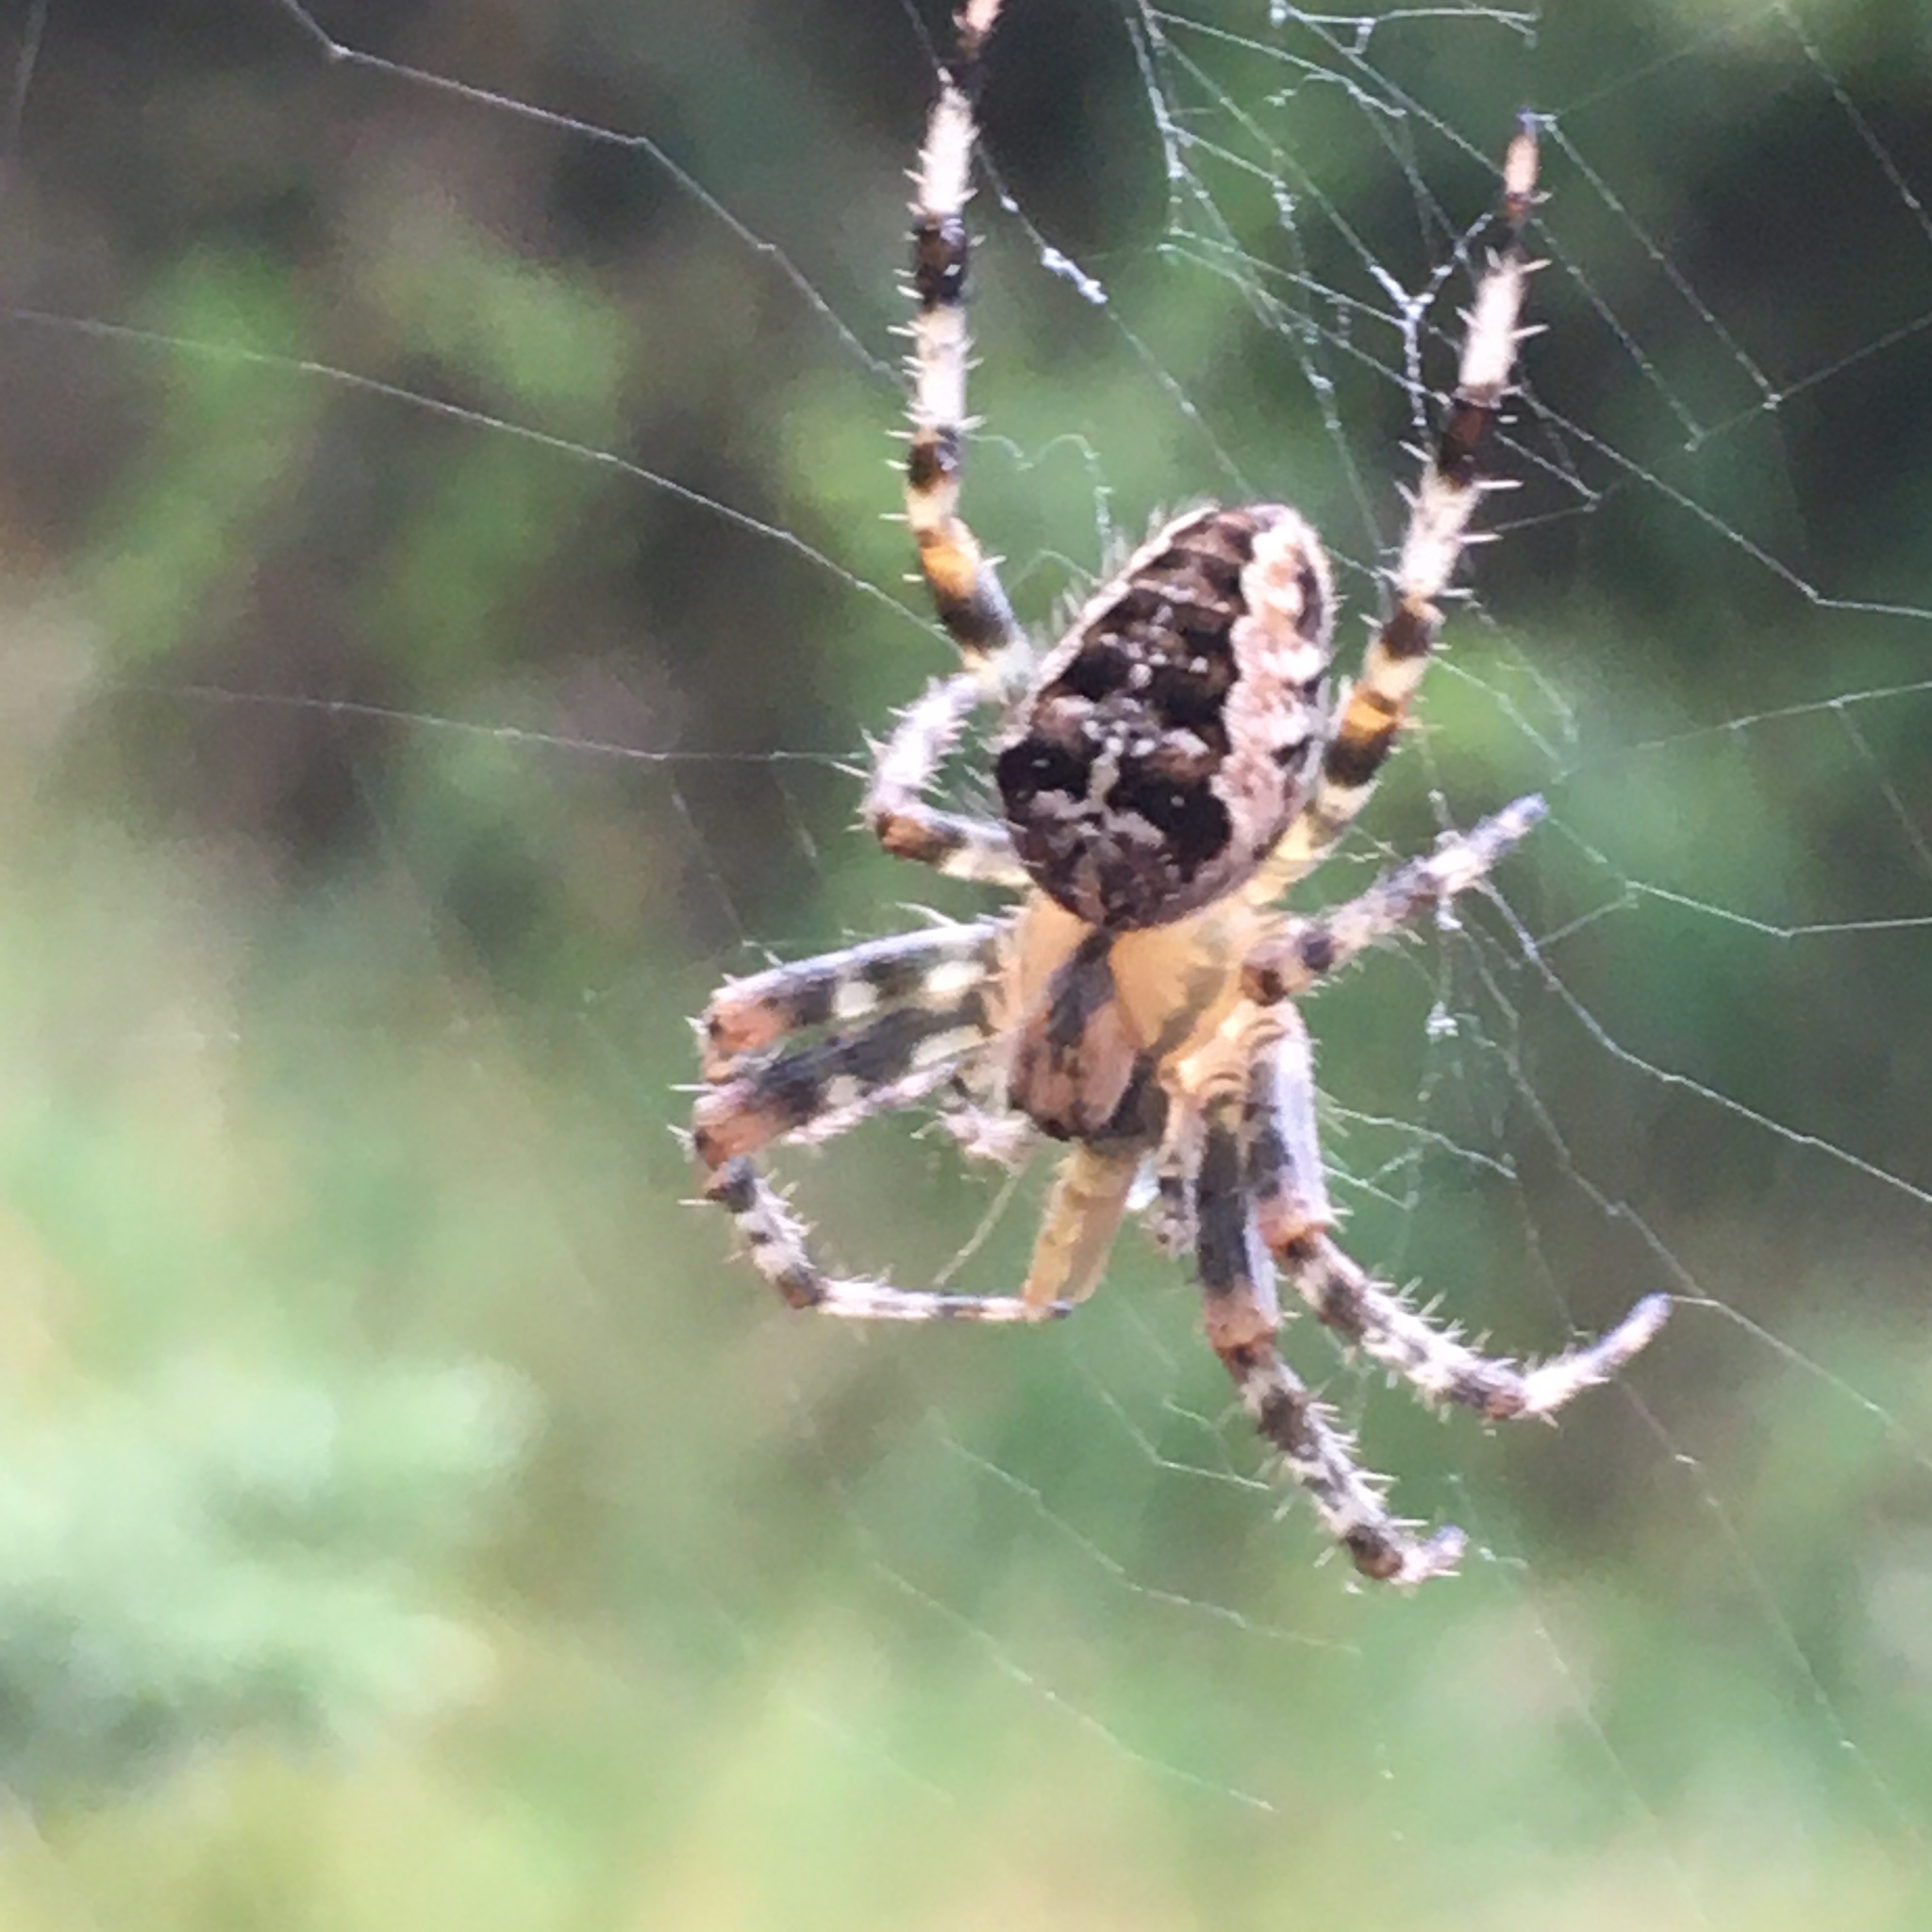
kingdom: Animalia
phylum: Arthropoda
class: Arachnida
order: Araneae
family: Araneidae
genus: Araneus
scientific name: Araneus diadematus
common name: Cross orbweaver
